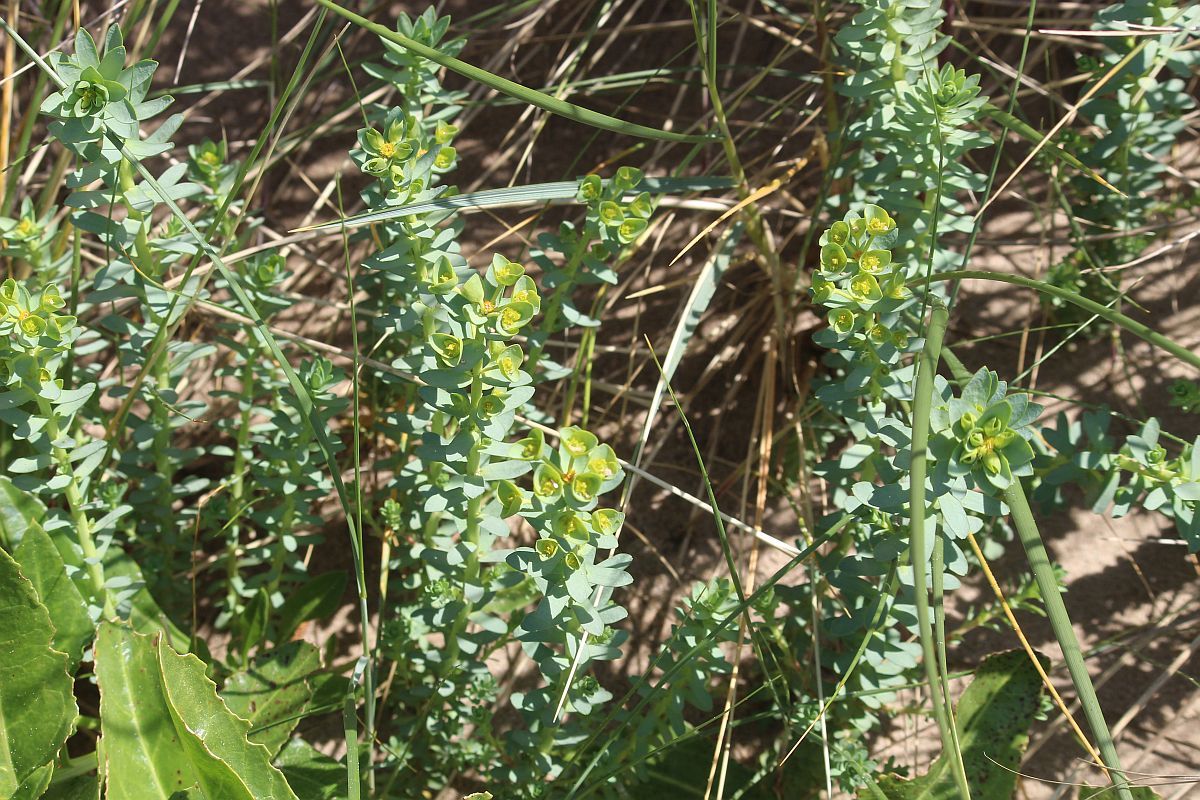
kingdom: Plantae
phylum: Tracheophyta
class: Magnoliopsida
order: Malpighiales
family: Euphorbiaceae
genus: Euphorbia
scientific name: Euphorbia paralias
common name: Sea spurge
